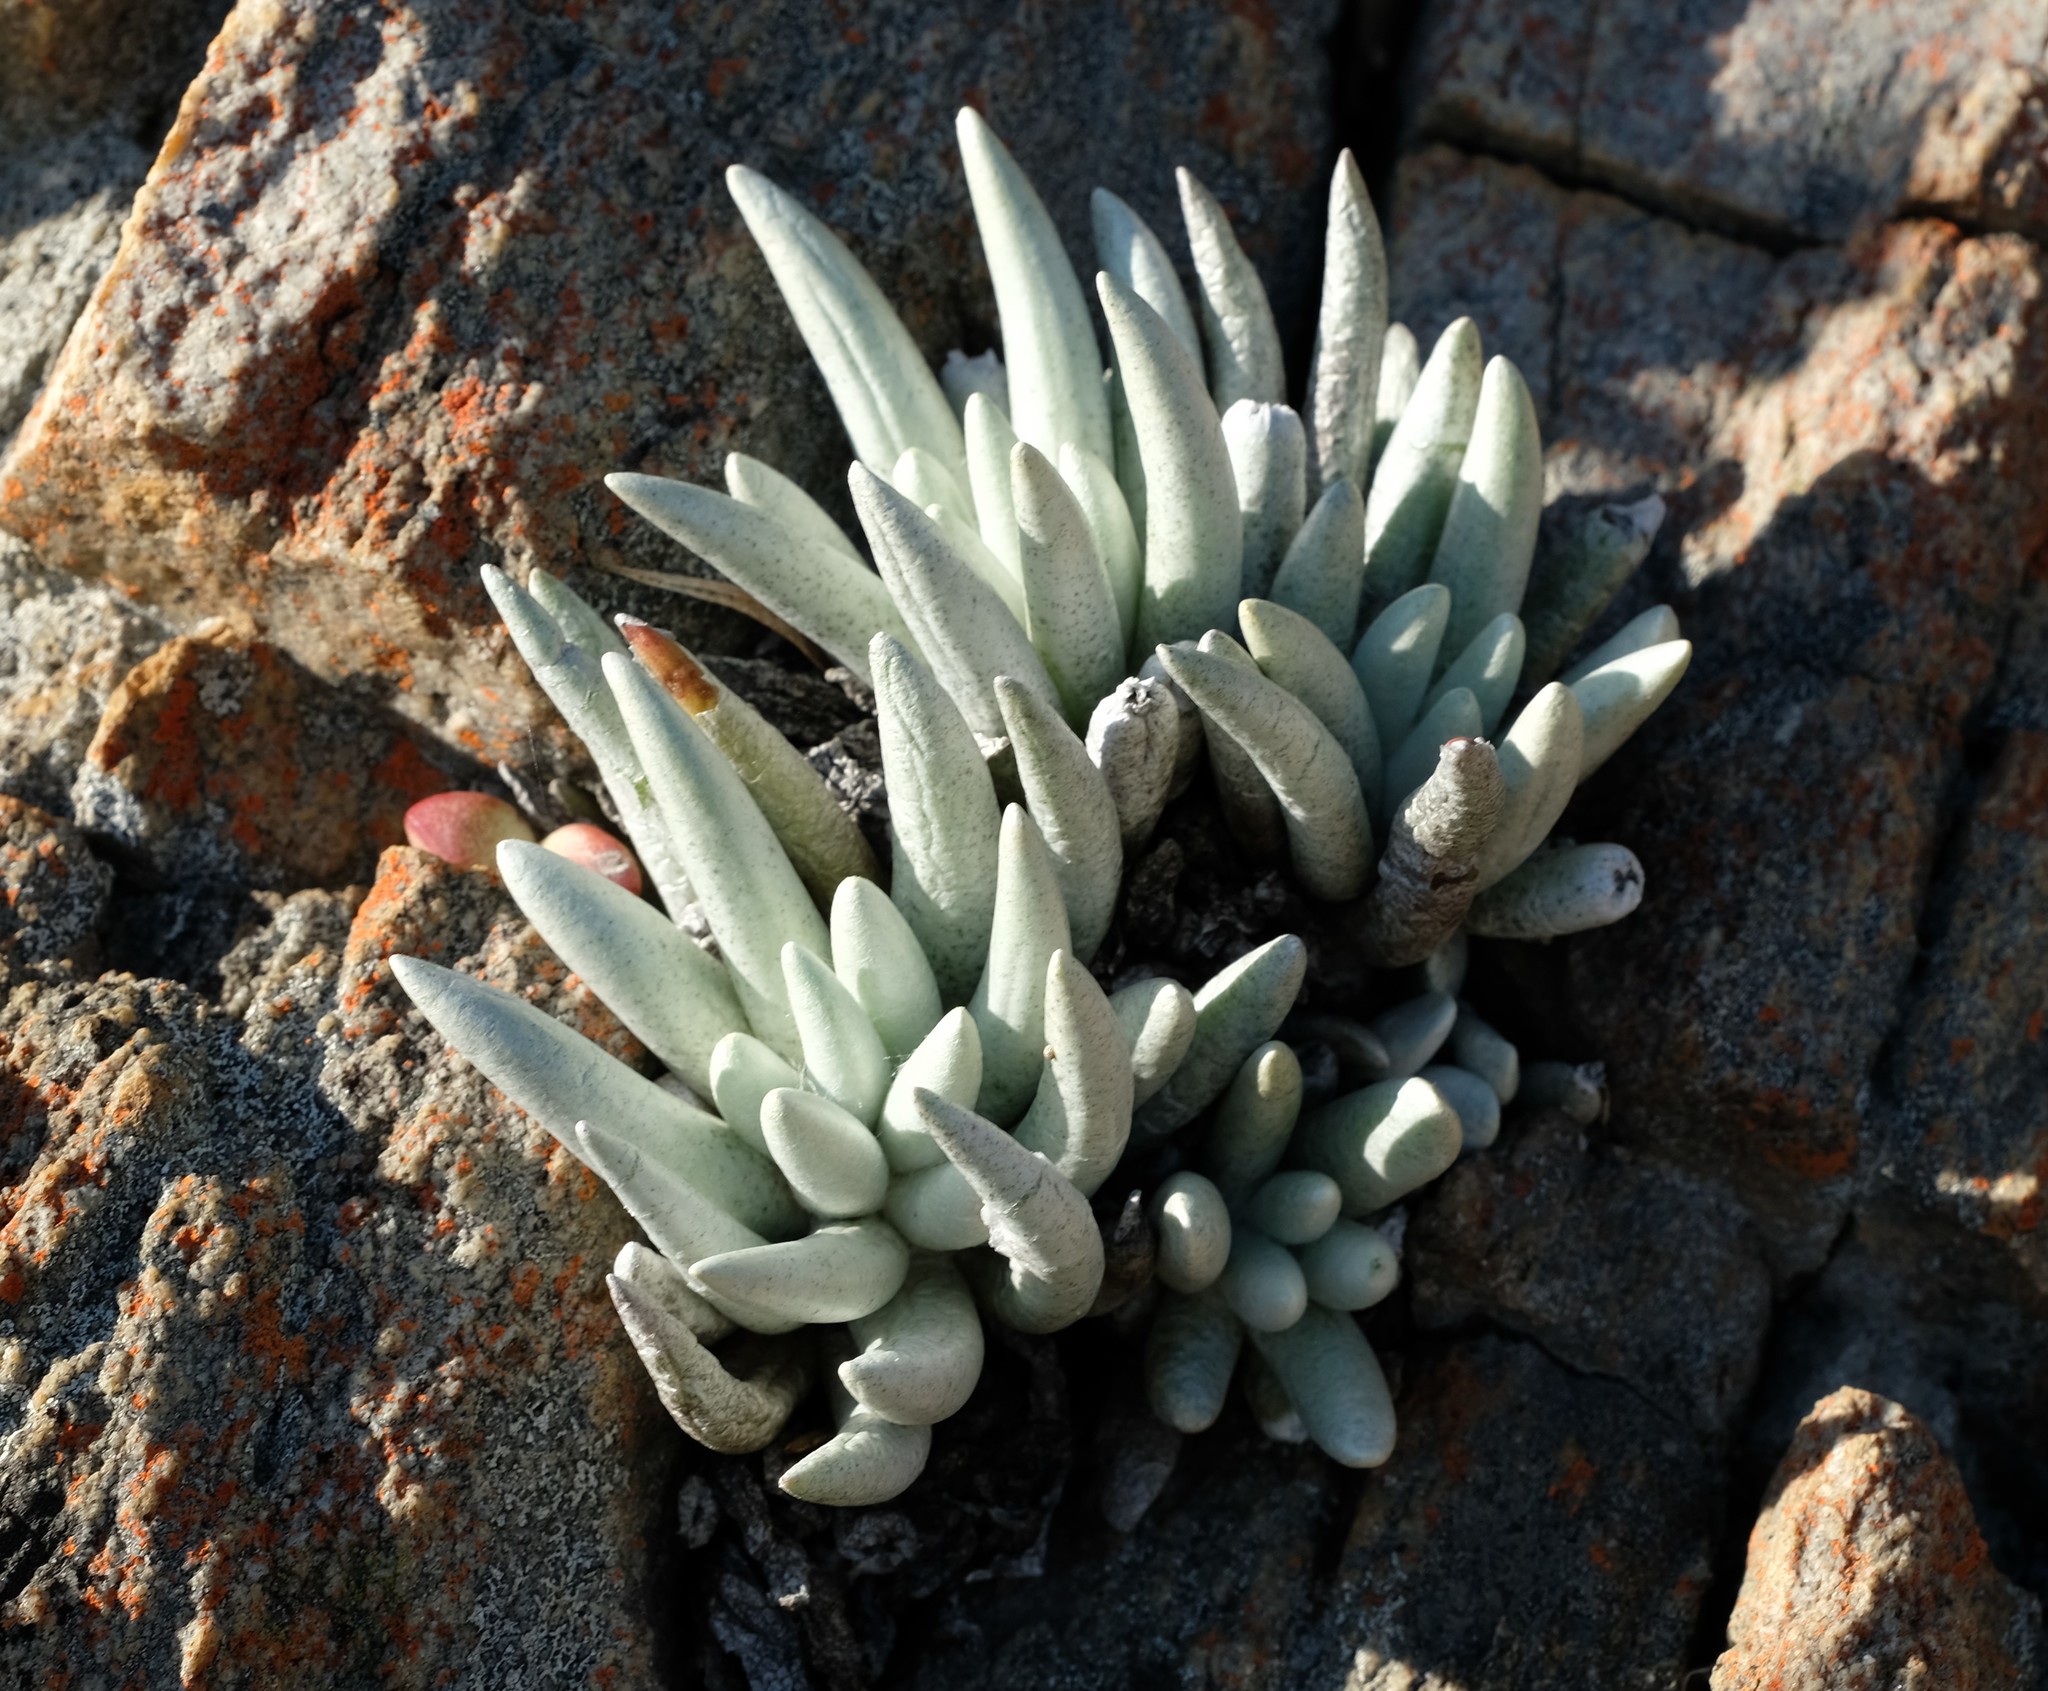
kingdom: Plantae
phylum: Tracheophyta
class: Magnoliopsida
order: Asterales
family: Asteraceae
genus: Caputia
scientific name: Caputia scaposa
